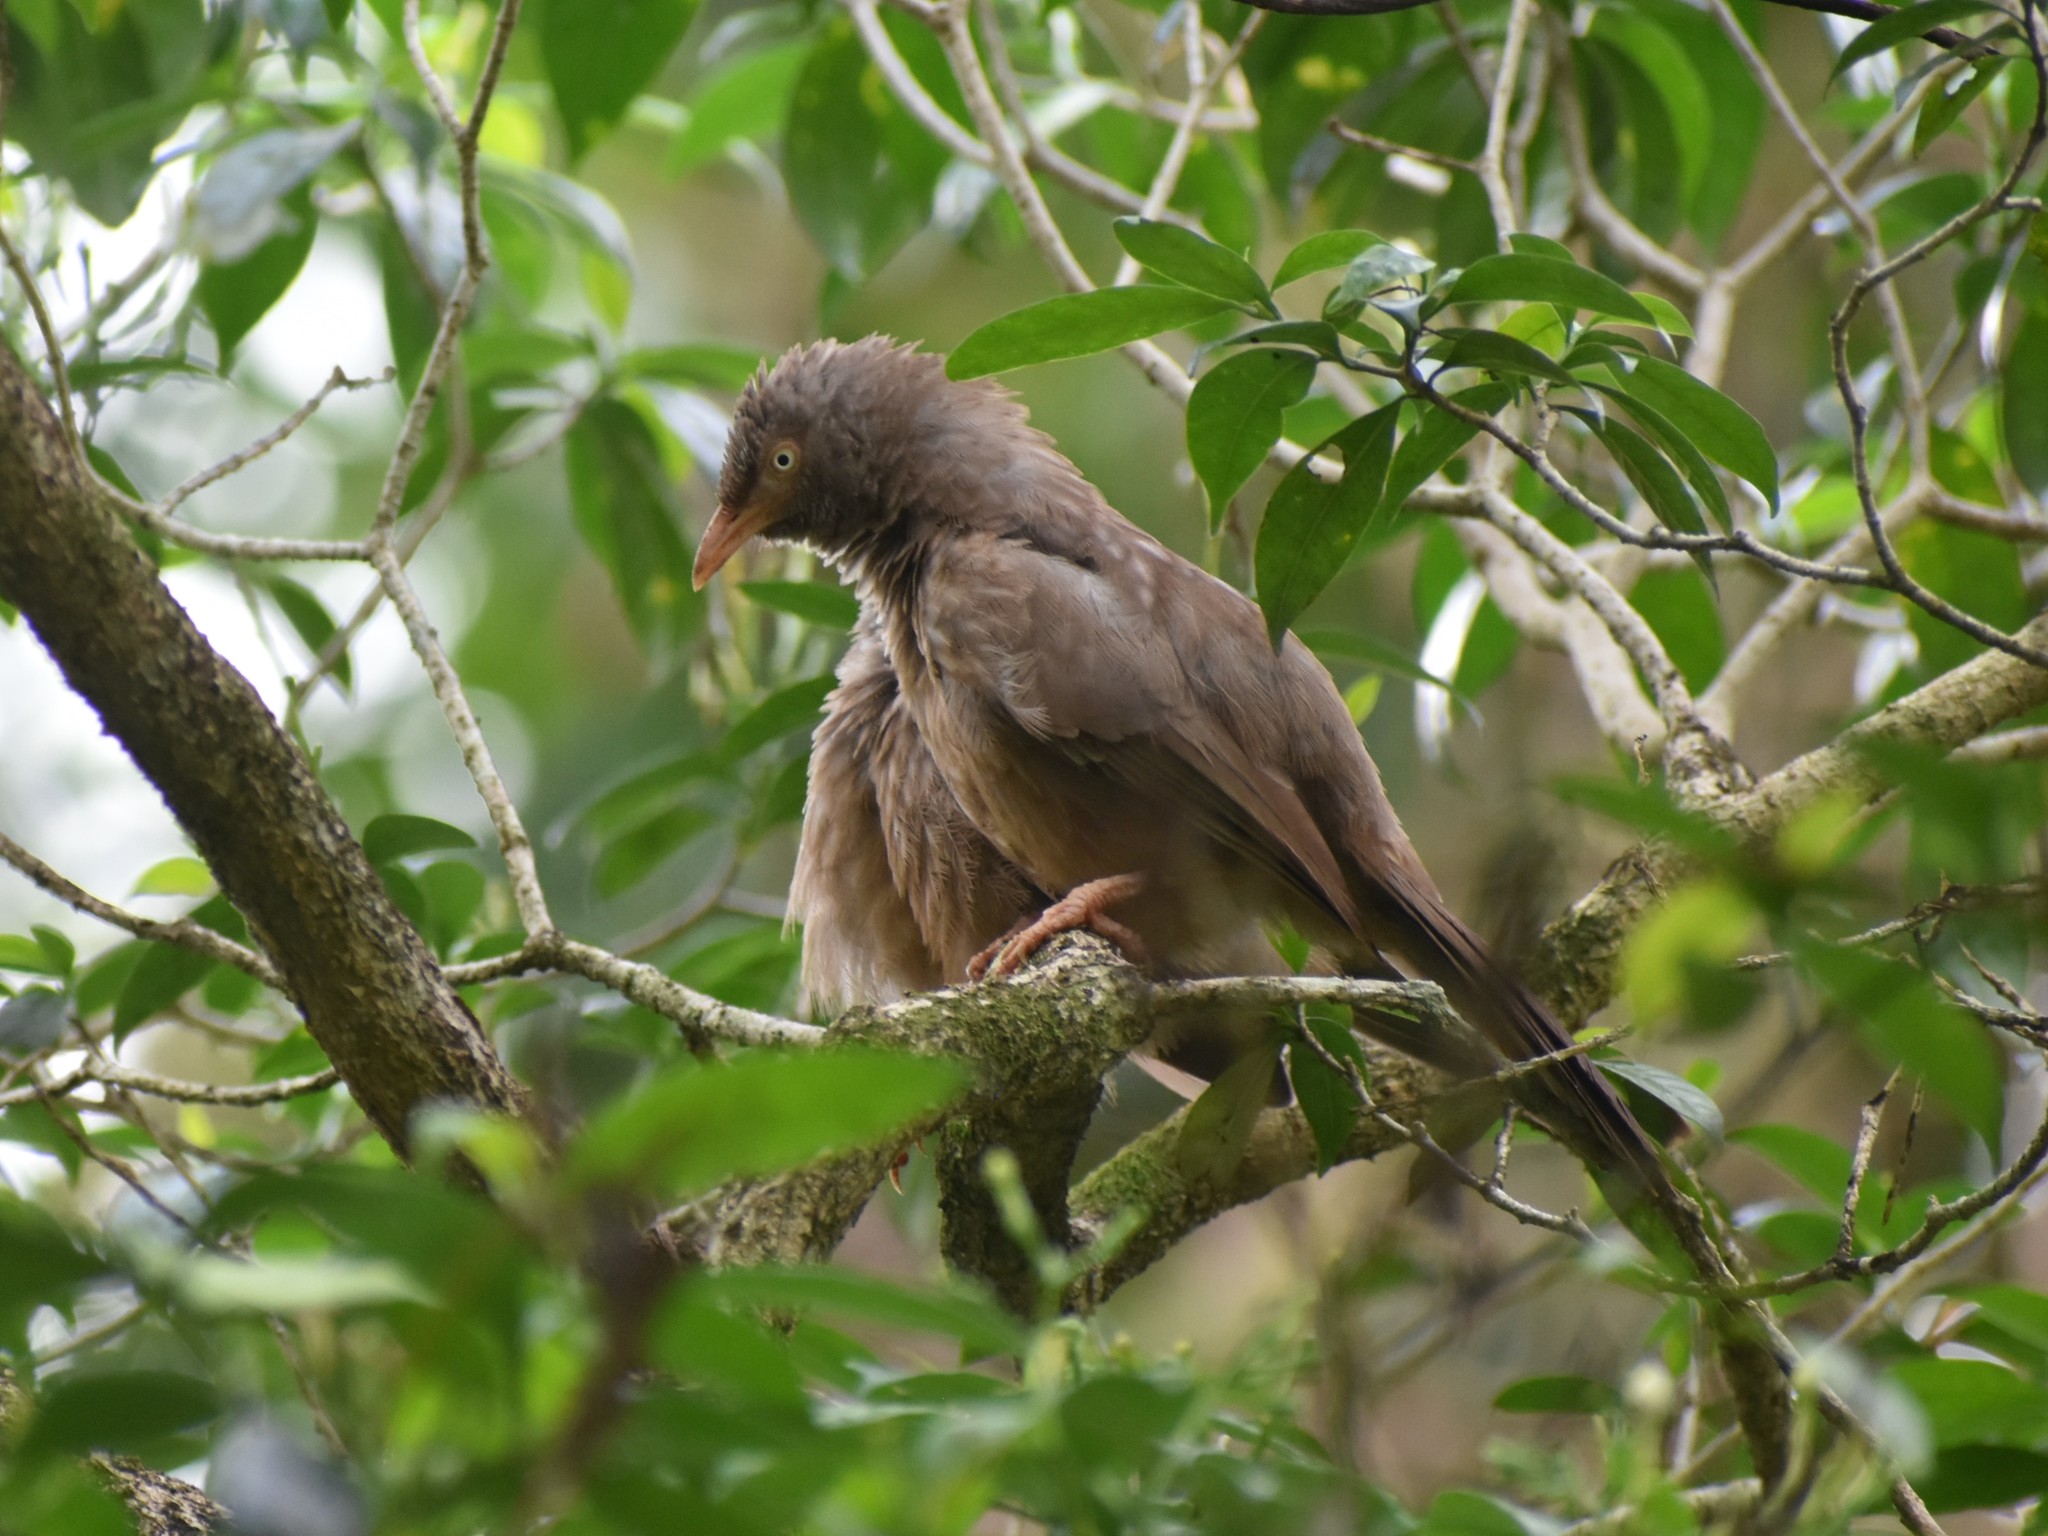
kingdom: Animalia
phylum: Chordata
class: Aves
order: Passeriformes
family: Leiothrichidae
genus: Turdoides
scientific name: Turdoides striata
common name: Jungle babbler
